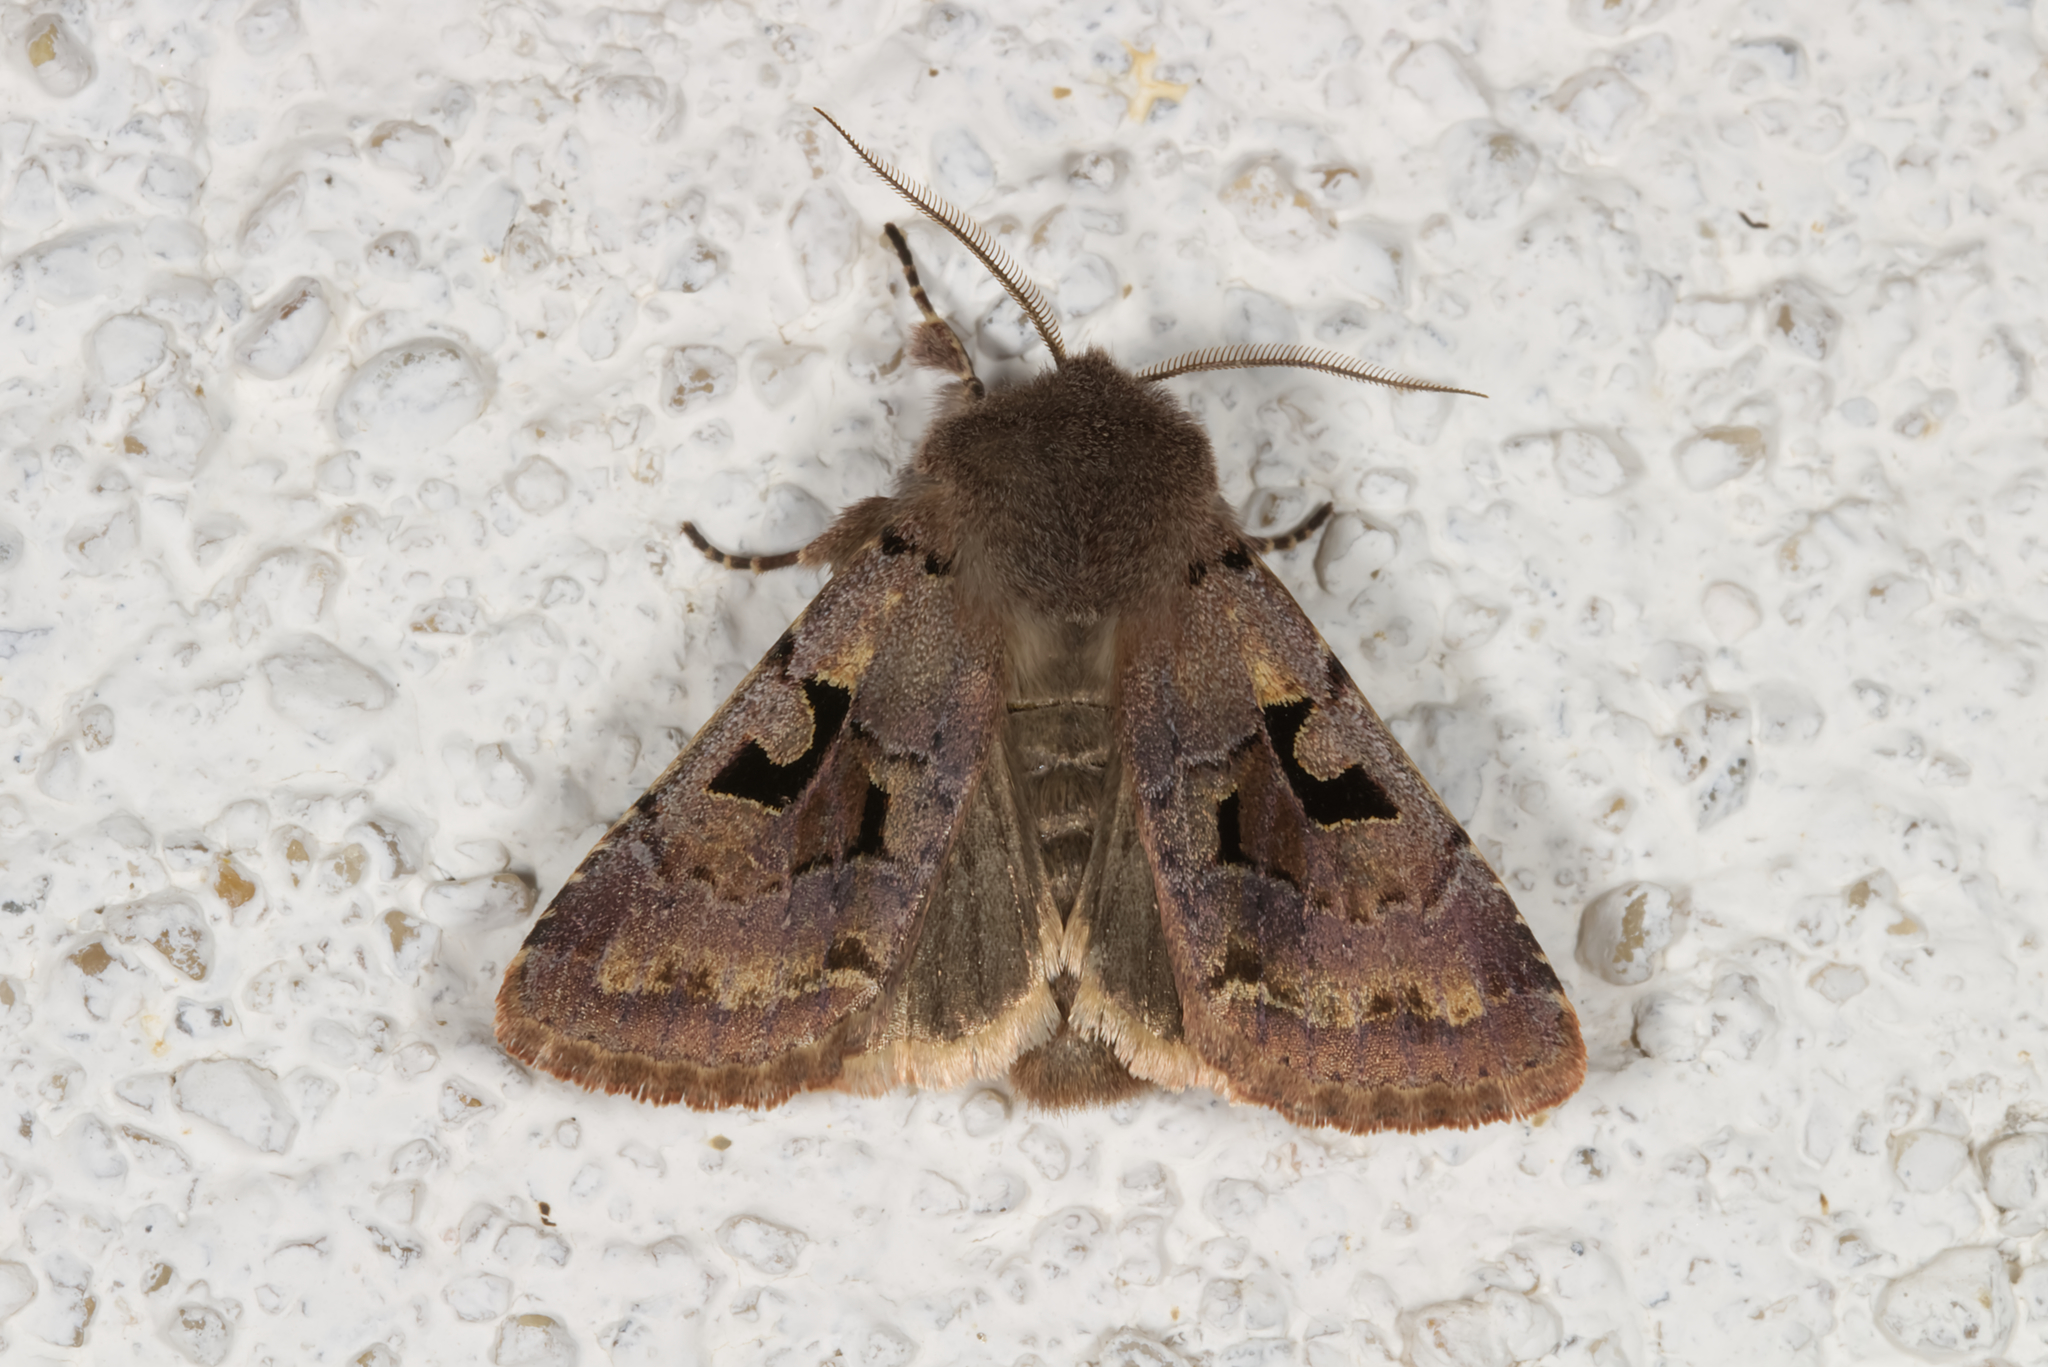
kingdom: Animalia
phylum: Arthropoda
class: Insecta
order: Lepidoptera
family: Noctuidae
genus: Orthosia
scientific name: Orthosia gothica
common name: Hebrew character
